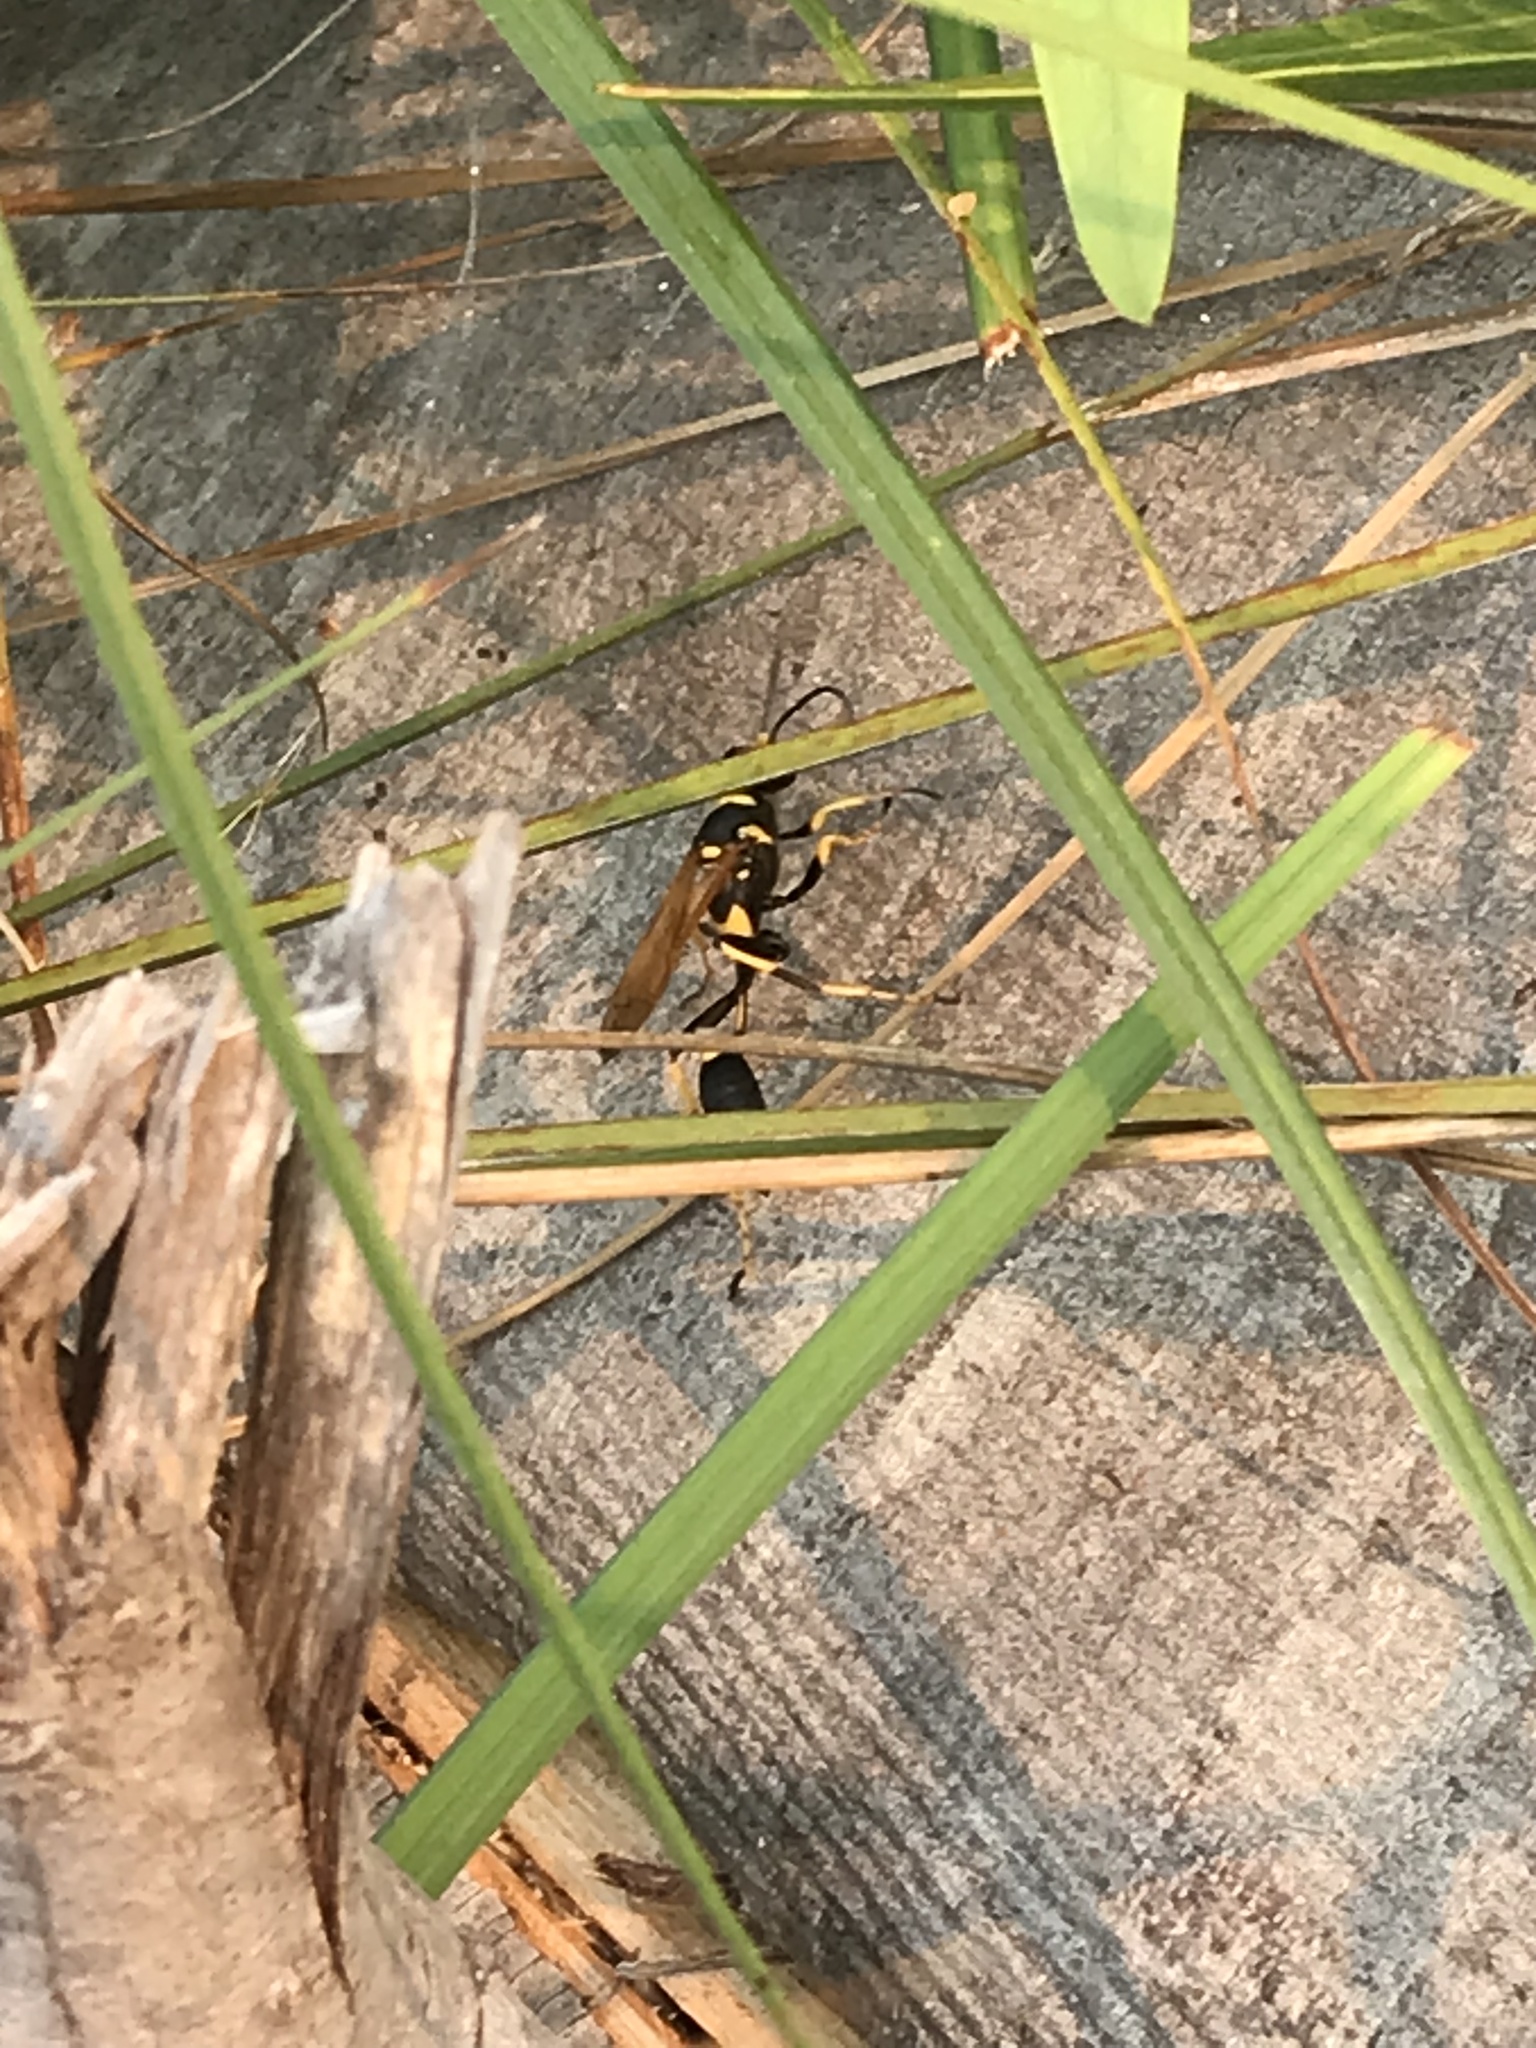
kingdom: Animalia
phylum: Arthropoda
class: Insecta
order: Hymenoptera
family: Sphecidae
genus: Sceliphron
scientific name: Sceliphron caementarium
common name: Mud dauber
